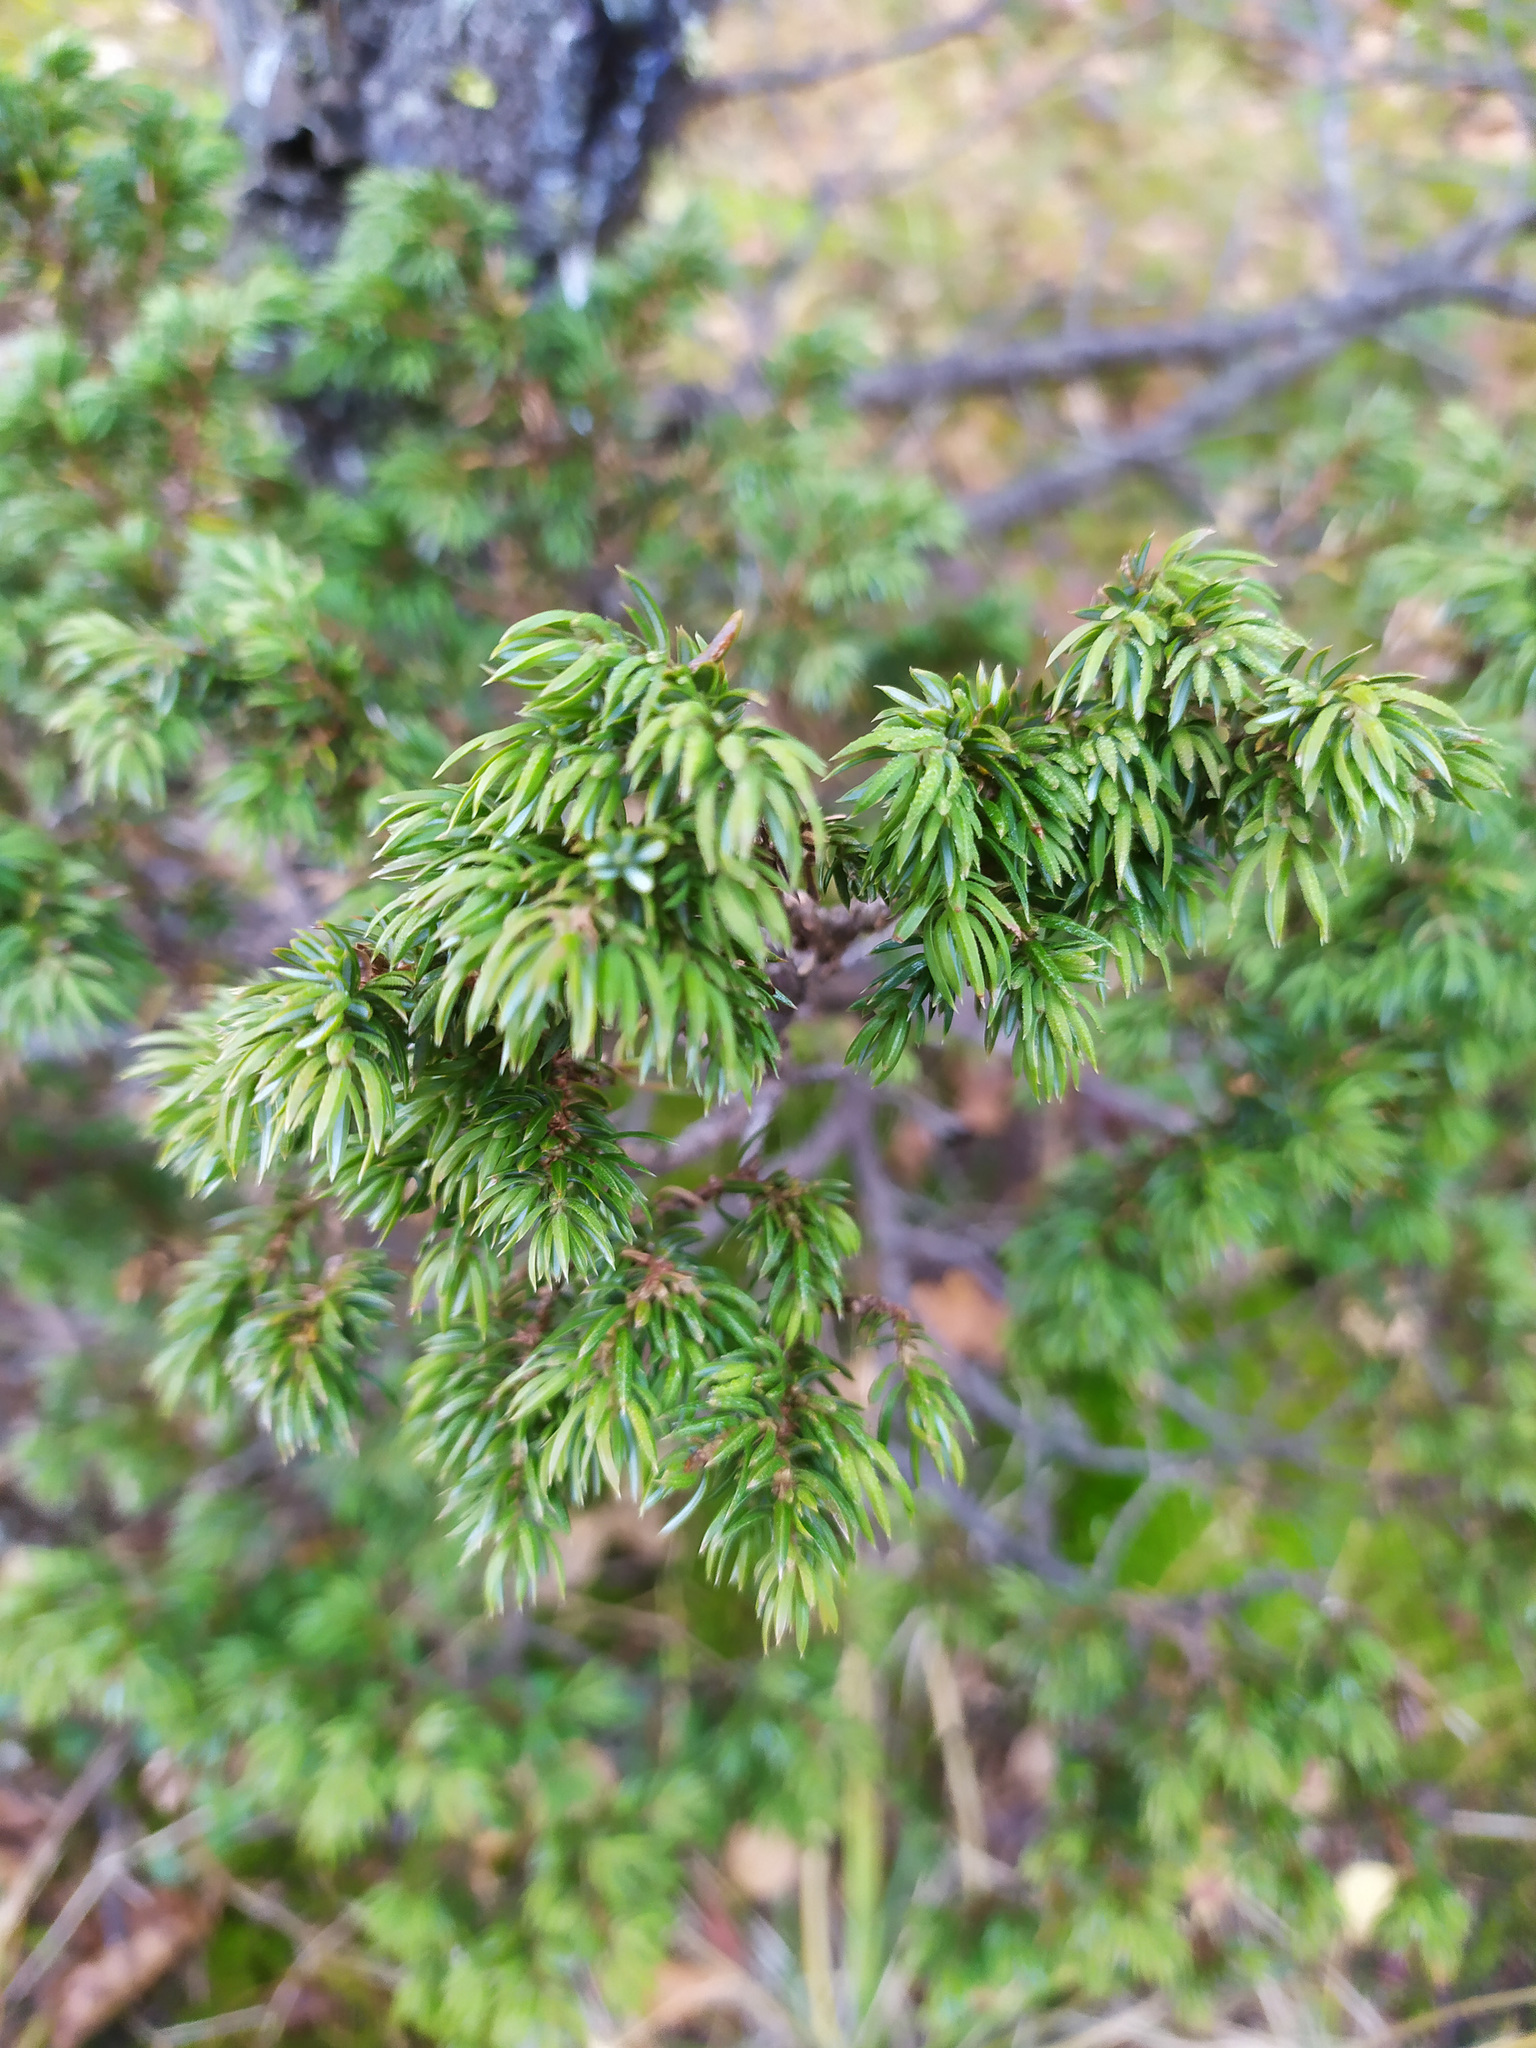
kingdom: Plantae
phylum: Tracheophyta
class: Pinopsida
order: Pinales
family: Cupressaceae
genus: Juniperus
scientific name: Juniperus communis
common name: Common juniper
